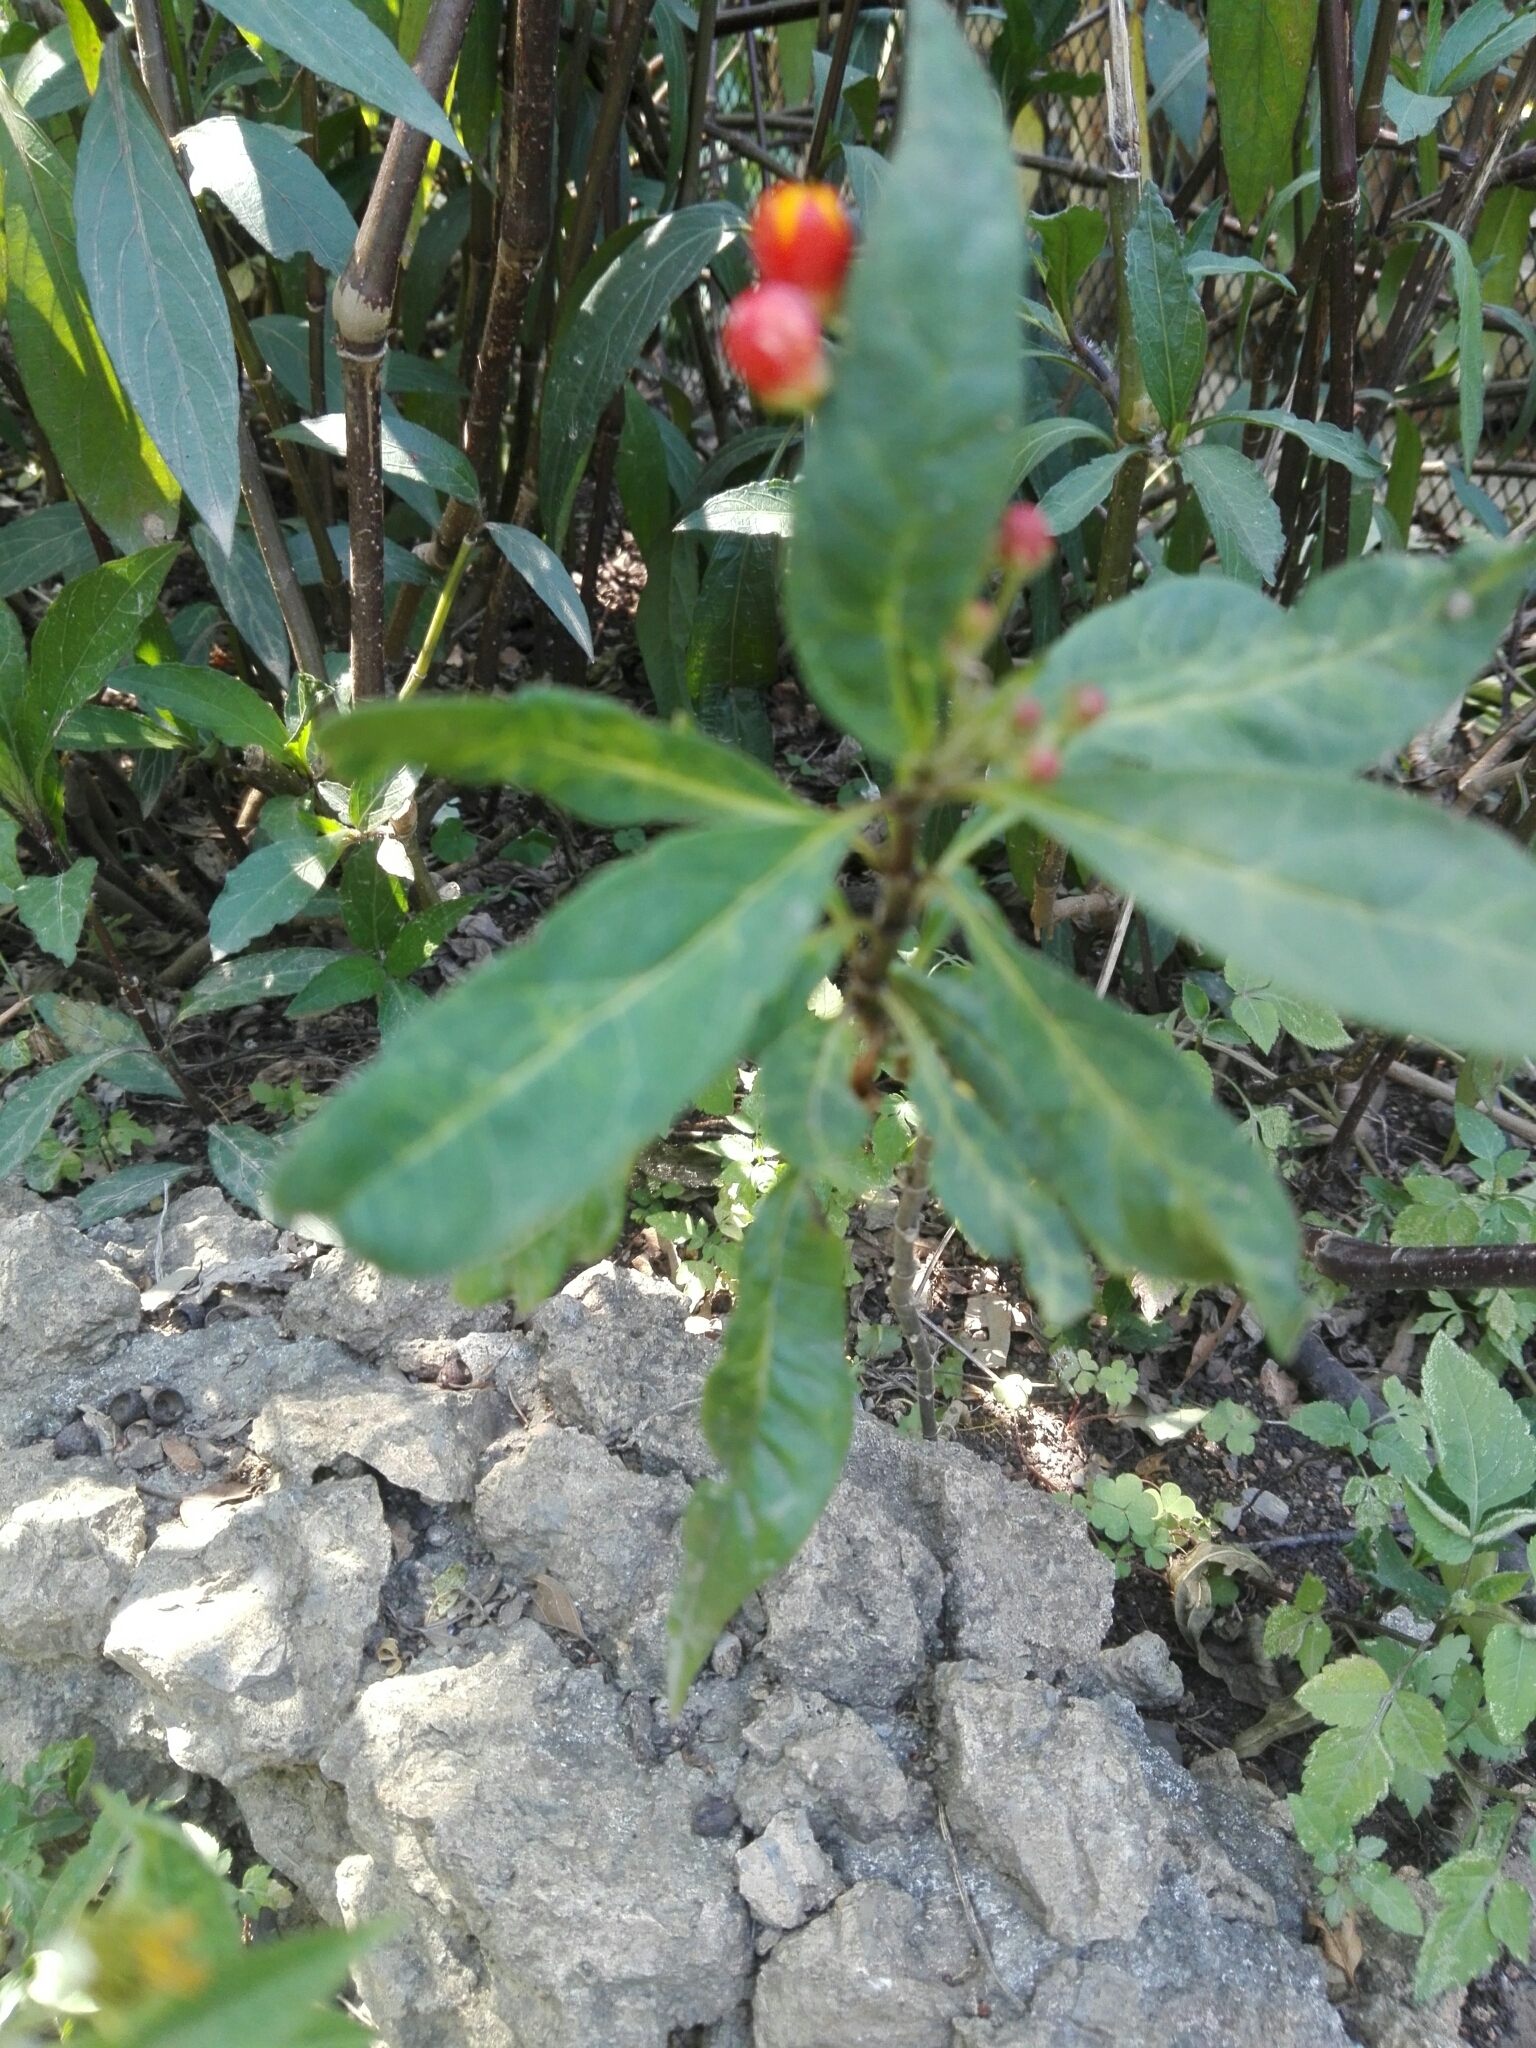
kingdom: Plantae
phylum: Tracheophyta
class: Magnoliopsida
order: Gentianales
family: Apocynaceae
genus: Asclepias
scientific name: Asclepias curassavica
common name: Bloodflower
